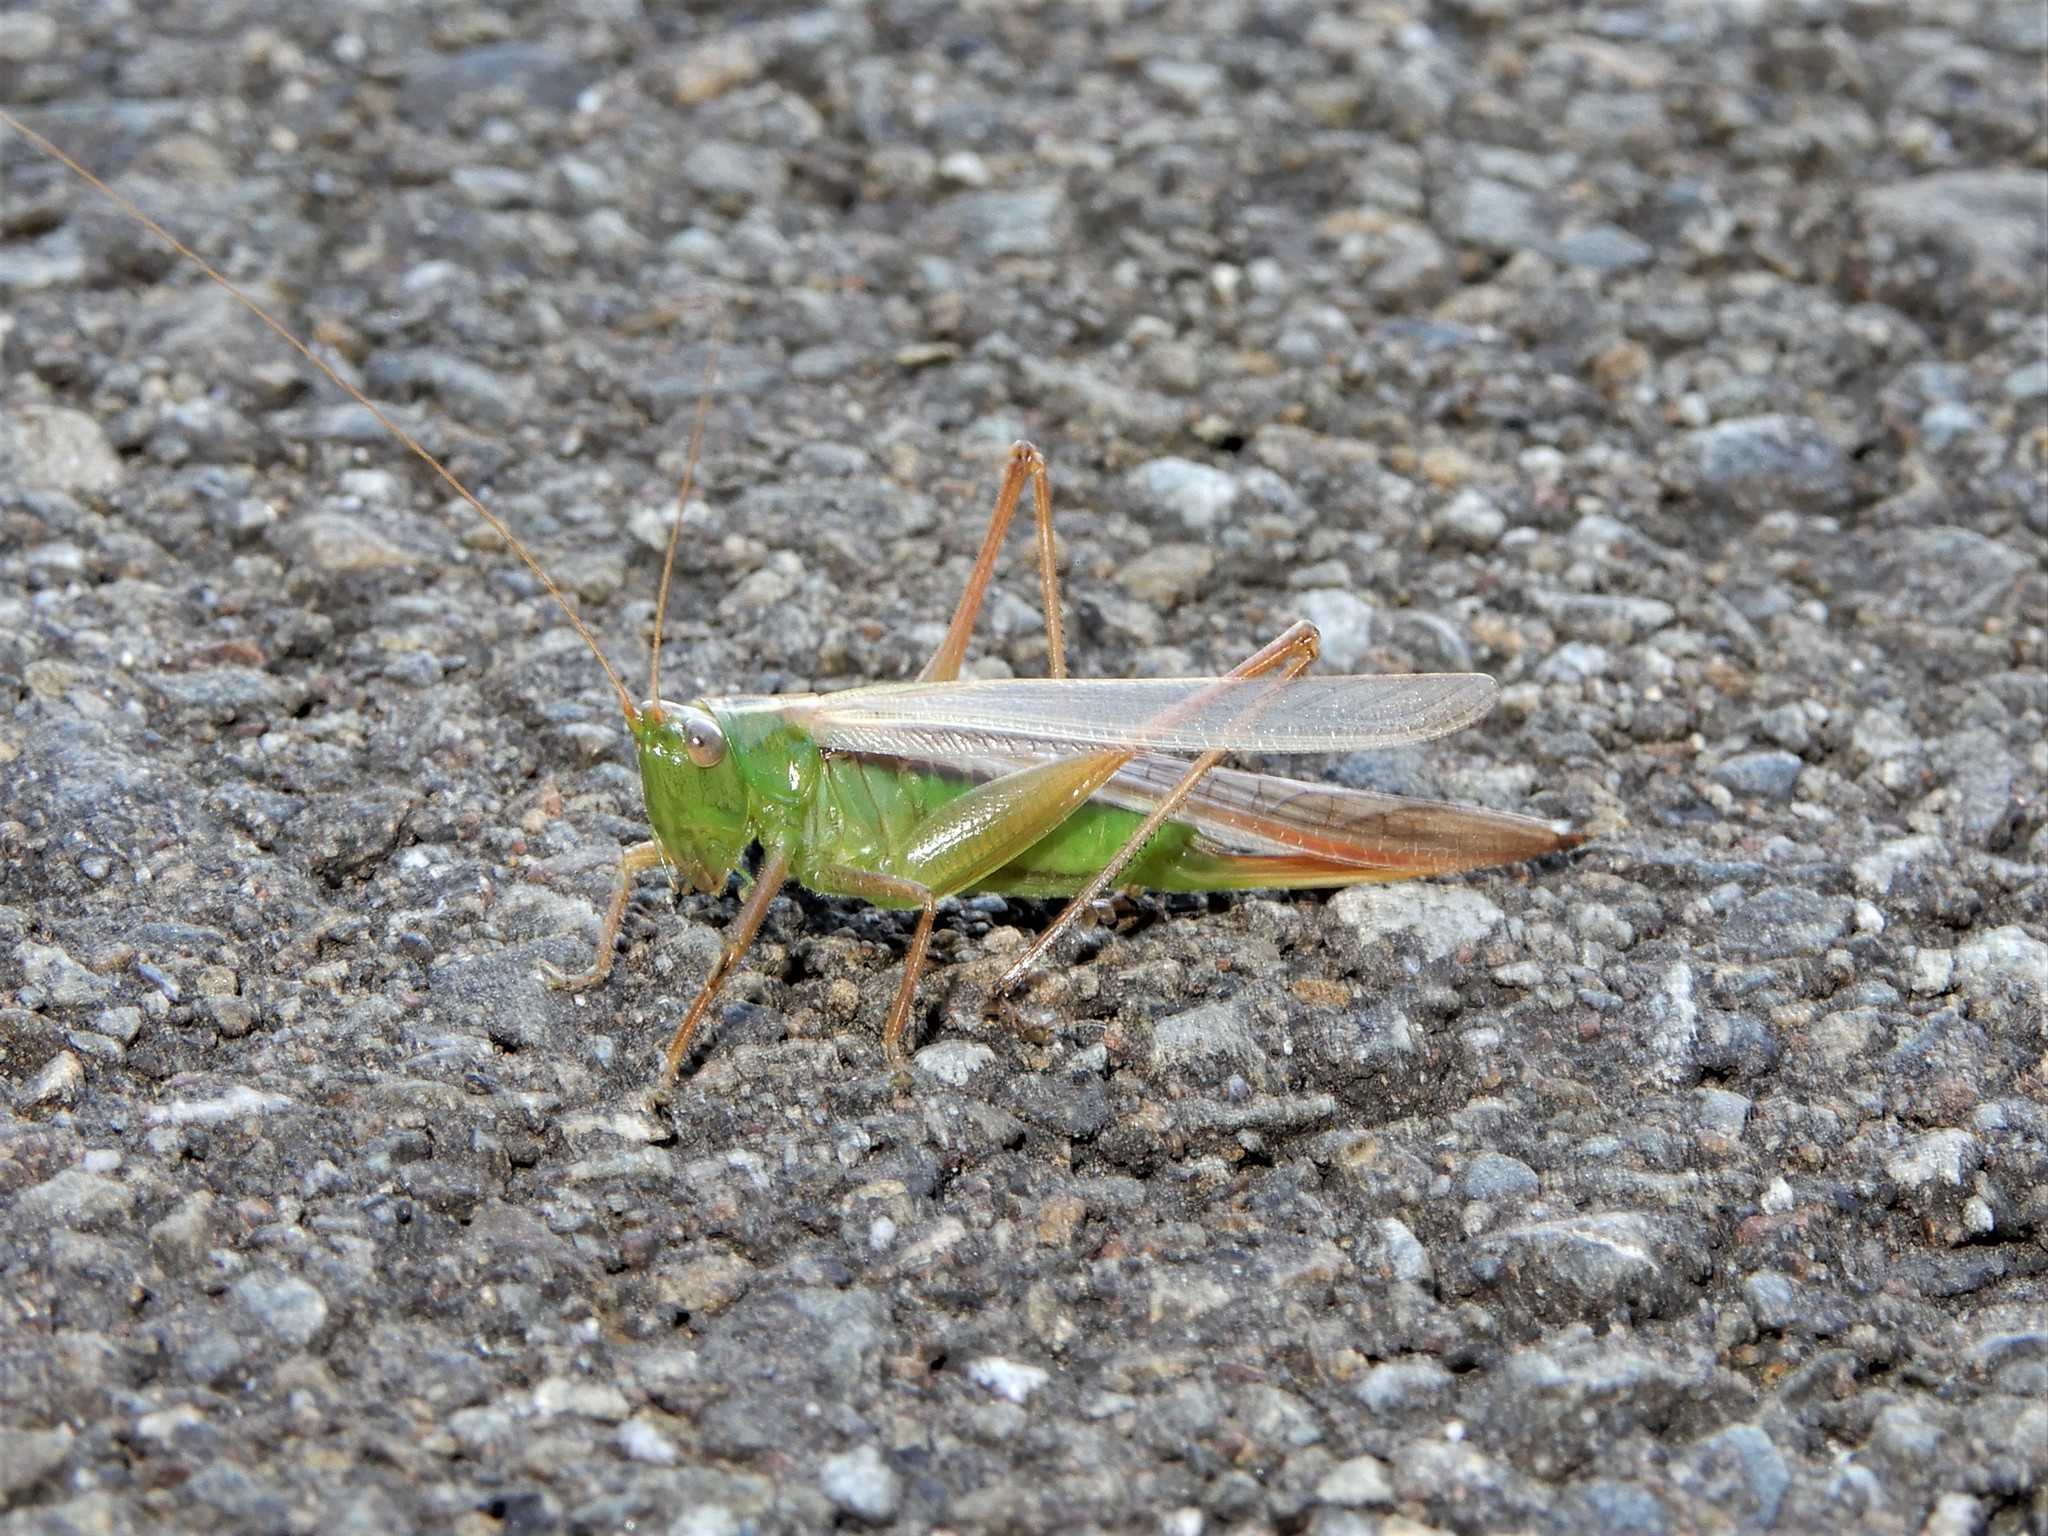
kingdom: Animalia
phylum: Arthropoda
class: Insecta
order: Orthoptera
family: Tettigoniidae
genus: Conocephalus
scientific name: Conocephalus albescens
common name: Whitish meadow katydid
